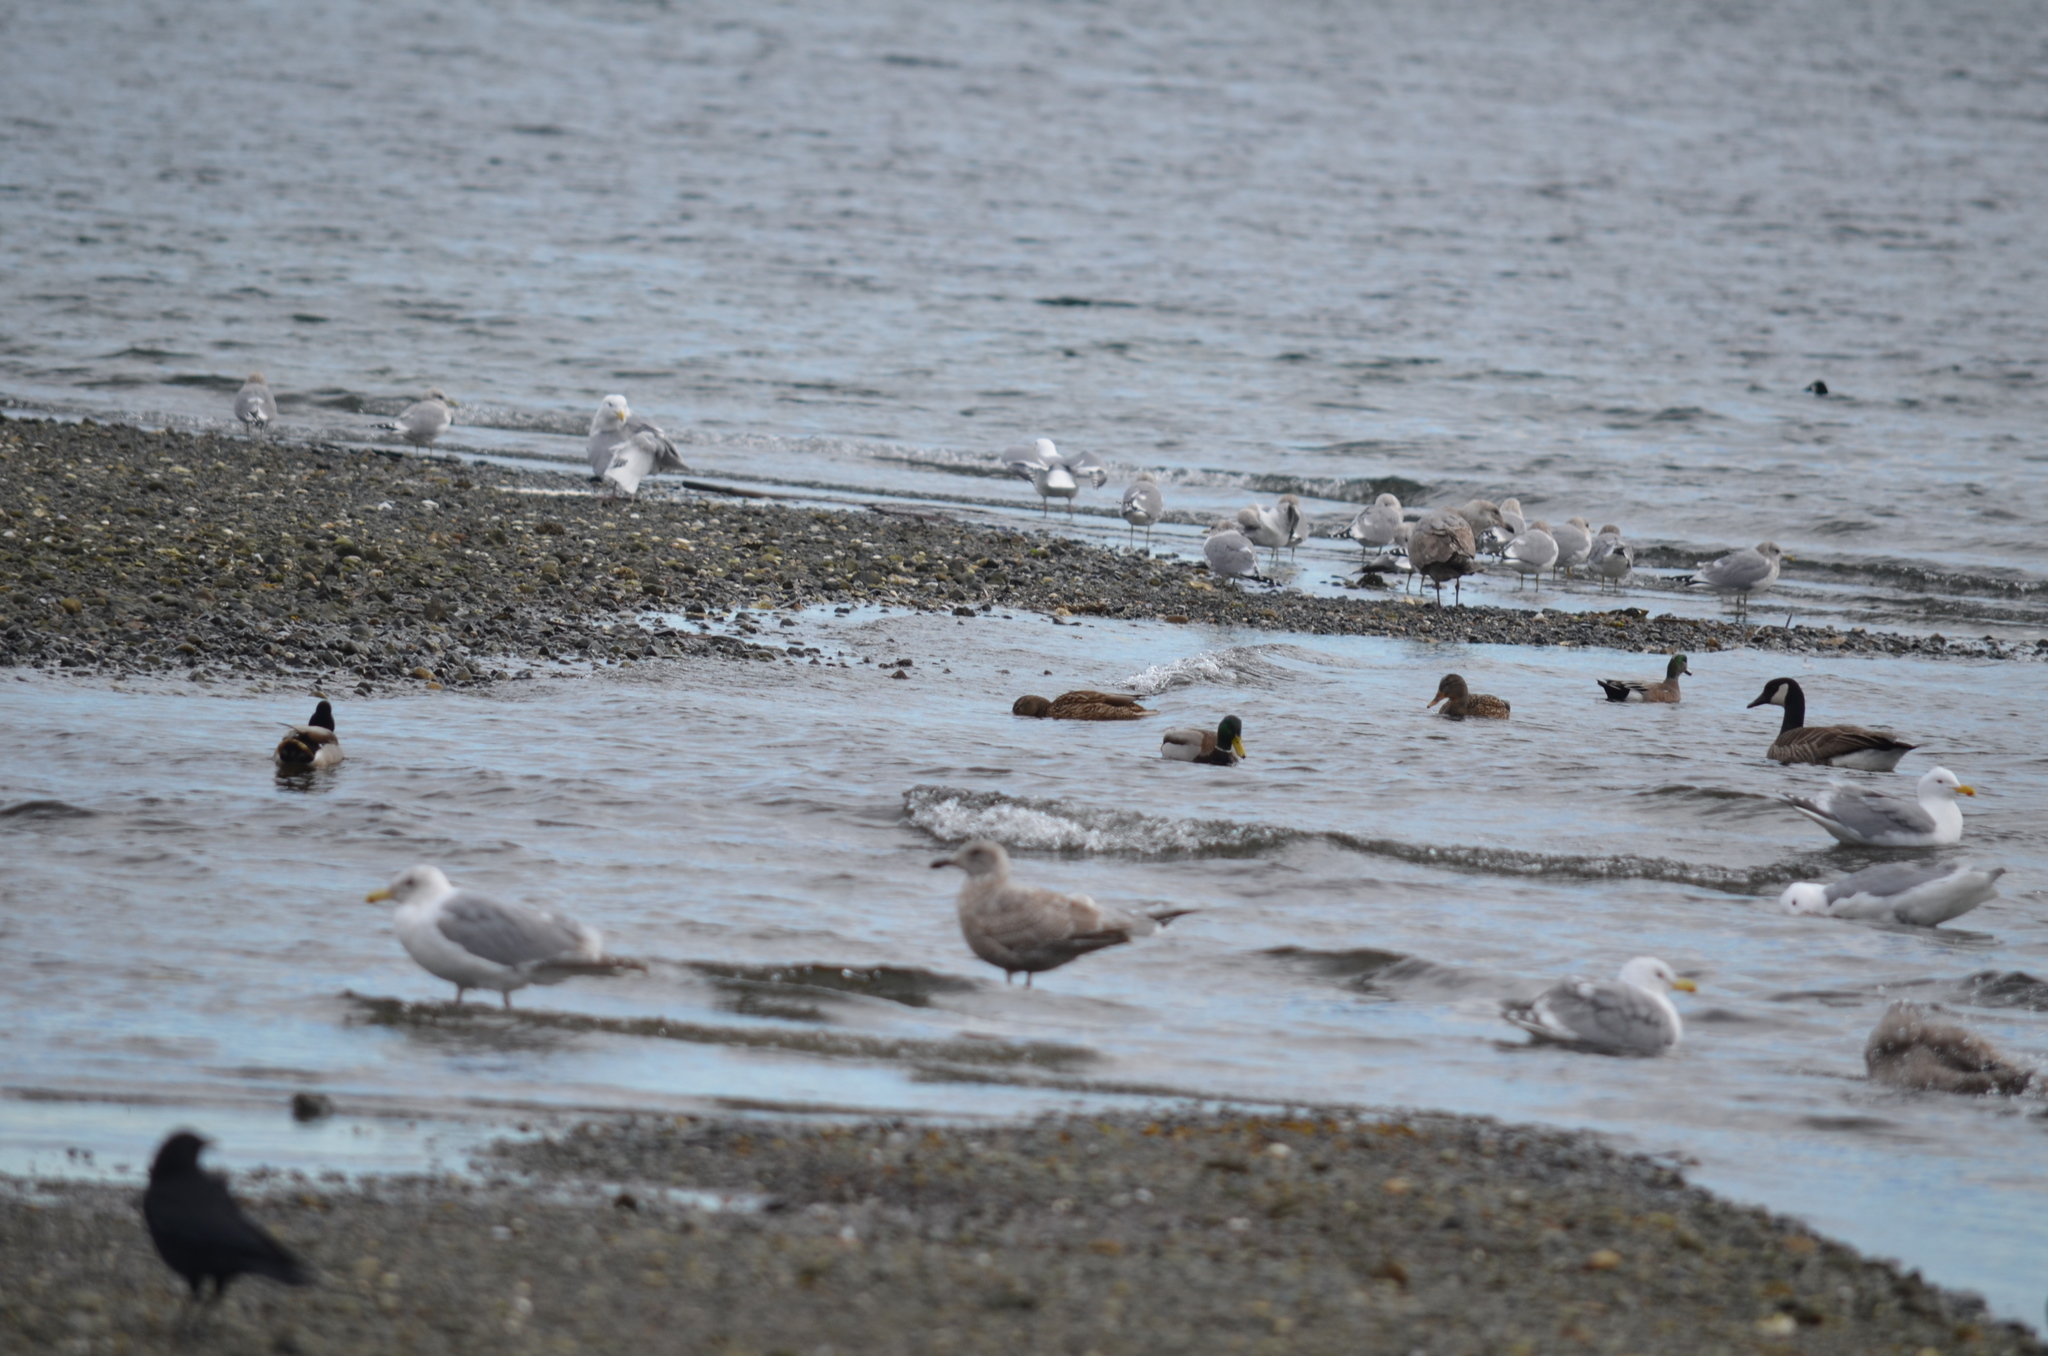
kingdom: Animalia
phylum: Chordata
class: Aves
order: Anseriformes
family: Anatidae
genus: Mareca
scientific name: Mareca americana
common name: American wigeon
